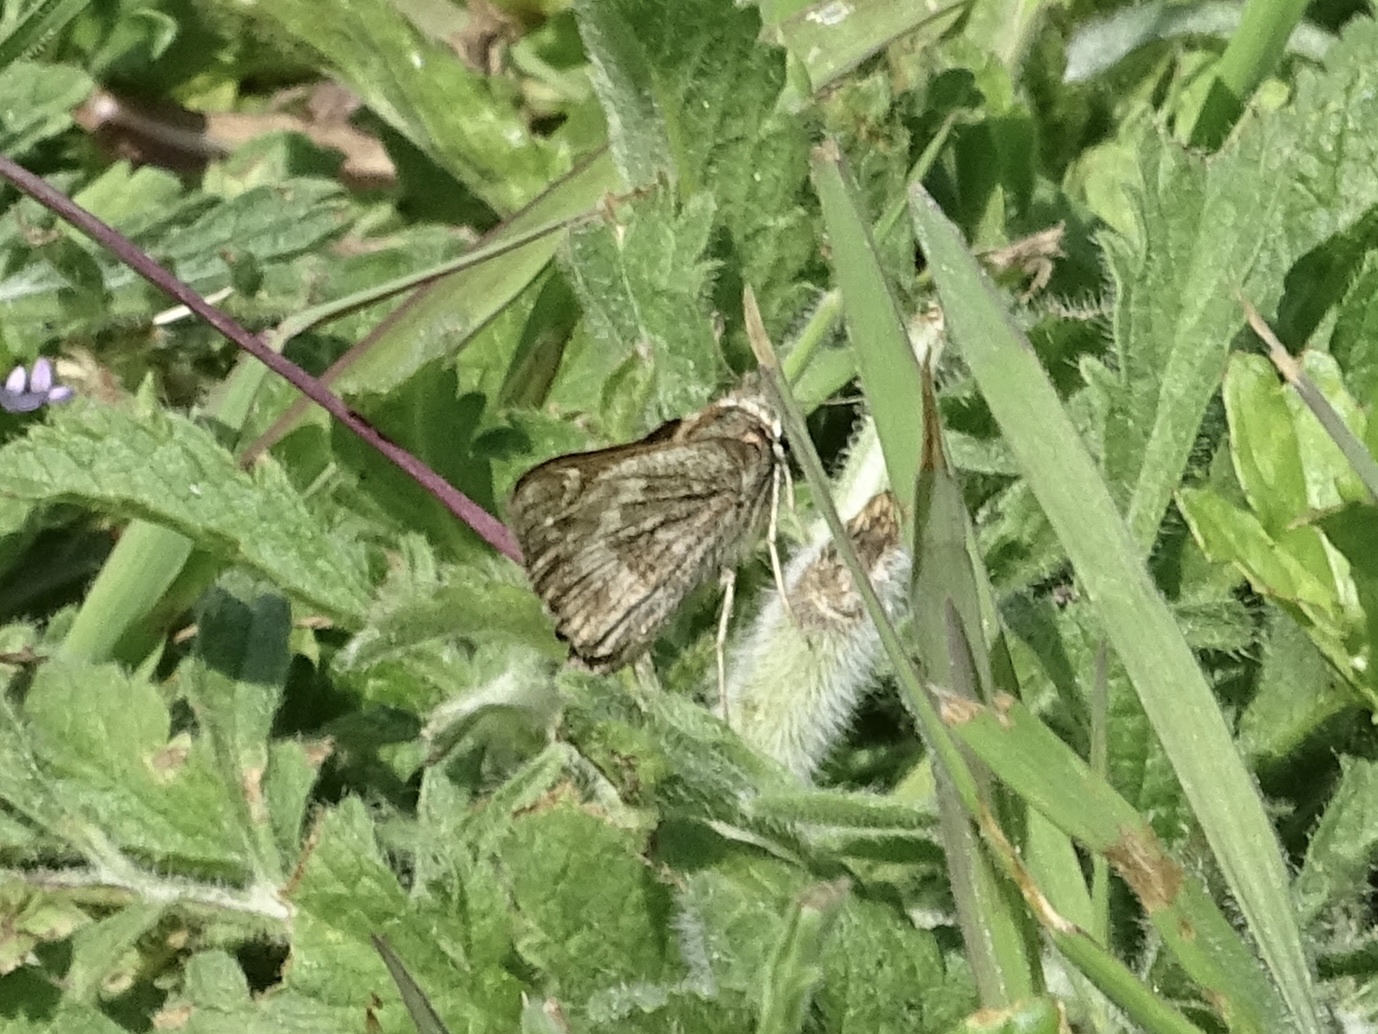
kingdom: Animalia
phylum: Arthropoda
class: Insecta
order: Lepidoptera
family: Hesperiidae
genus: Atalopedes
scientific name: Atalopedes
